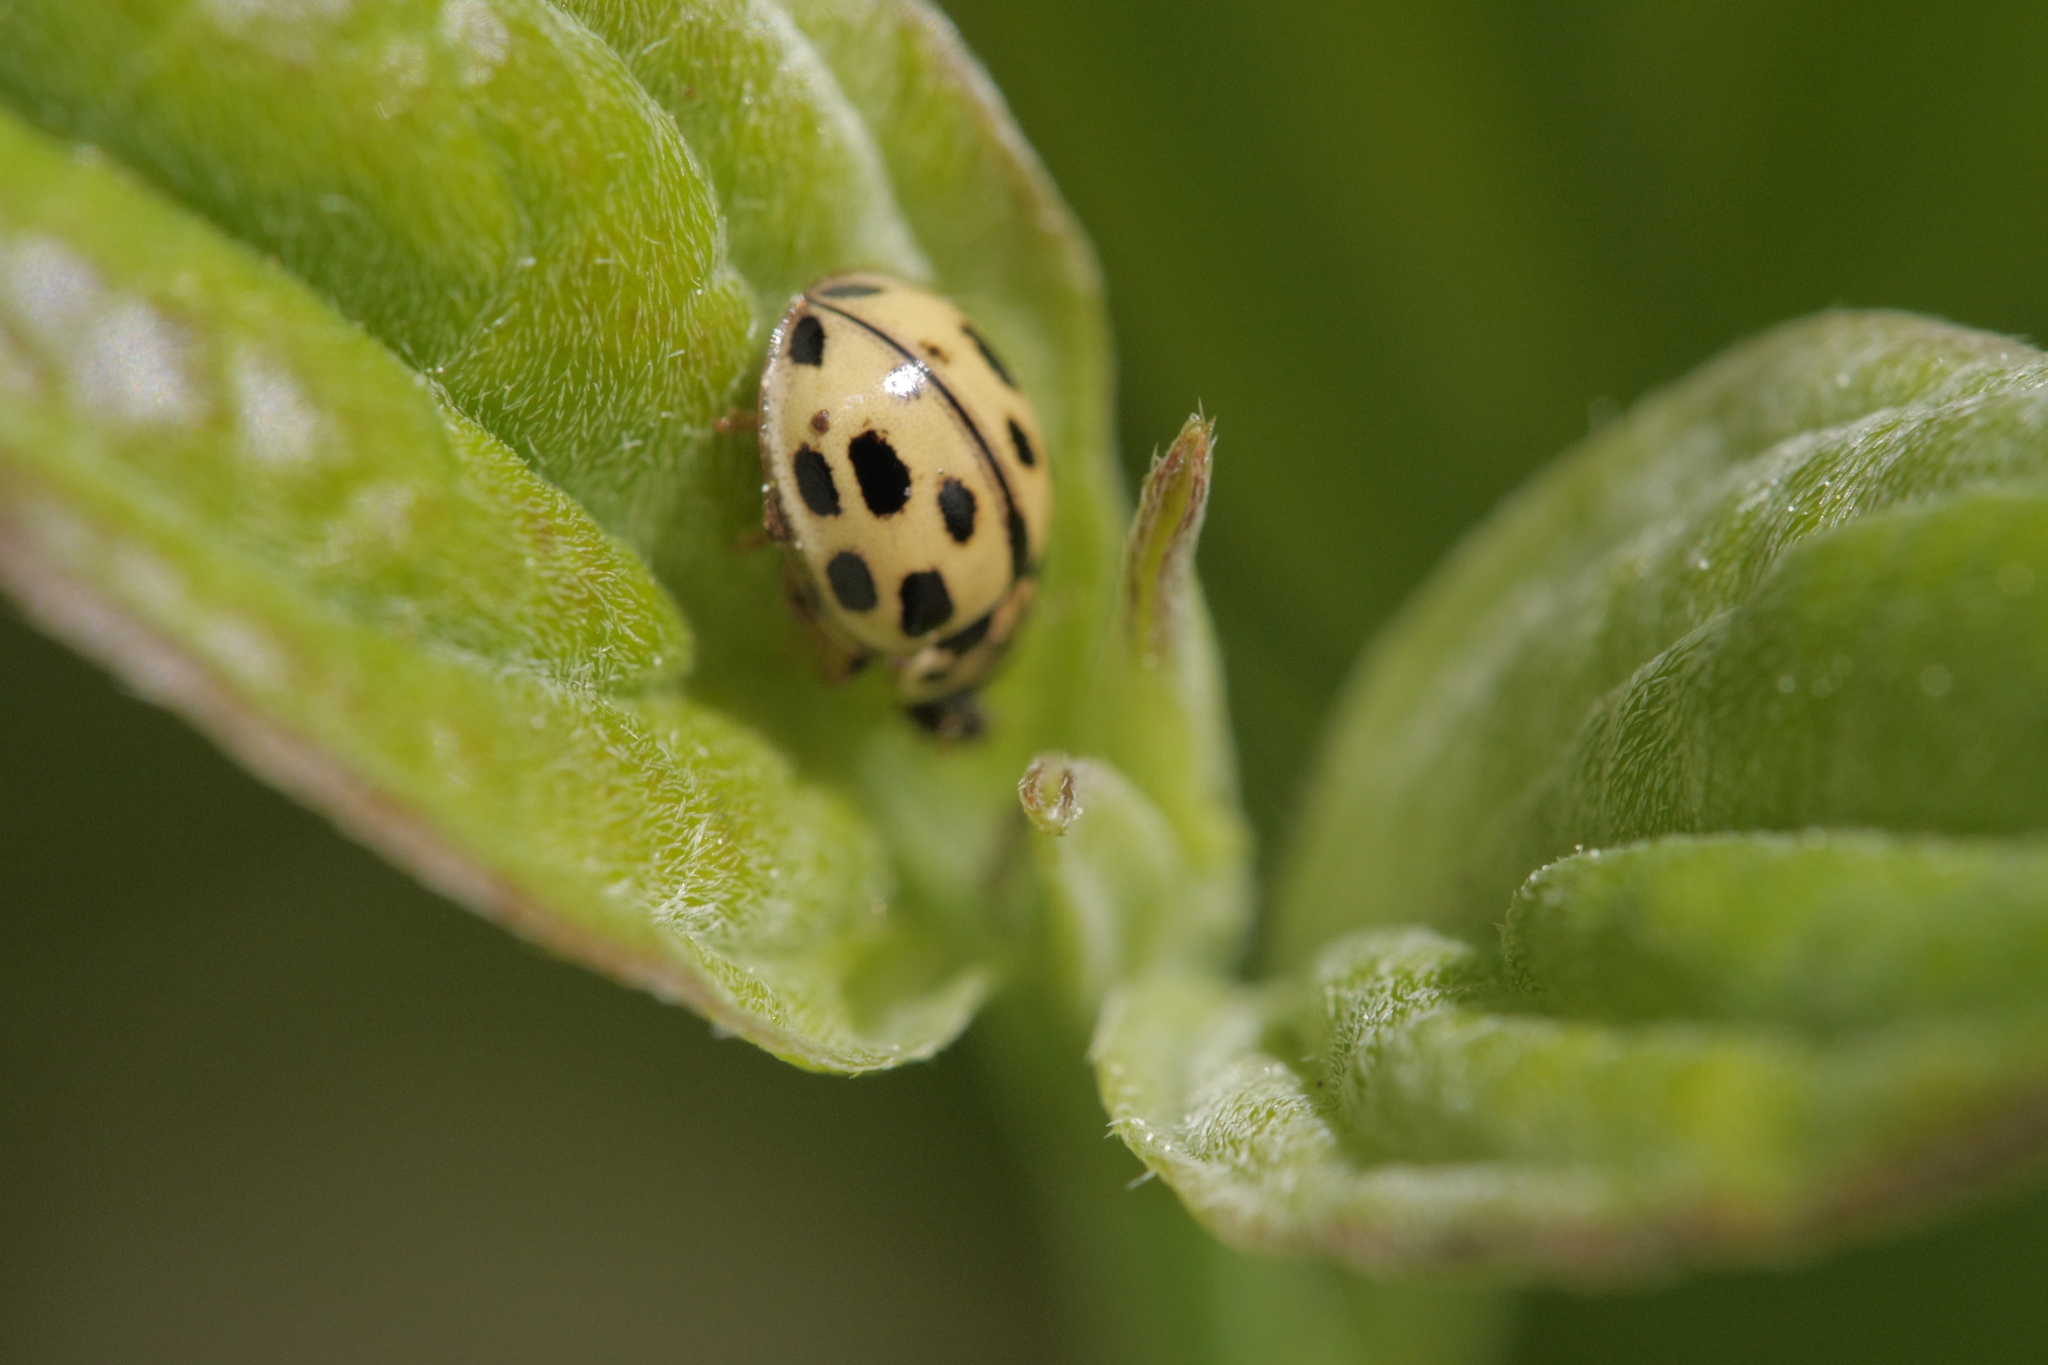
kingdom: Animalia
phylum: Arthropoda
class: Insecta
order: Coleoptera
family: Coccinellidae
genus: Propylaea
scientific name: Propylaea quatuordecimpunctata
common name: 14-spotted ladybird beetle
